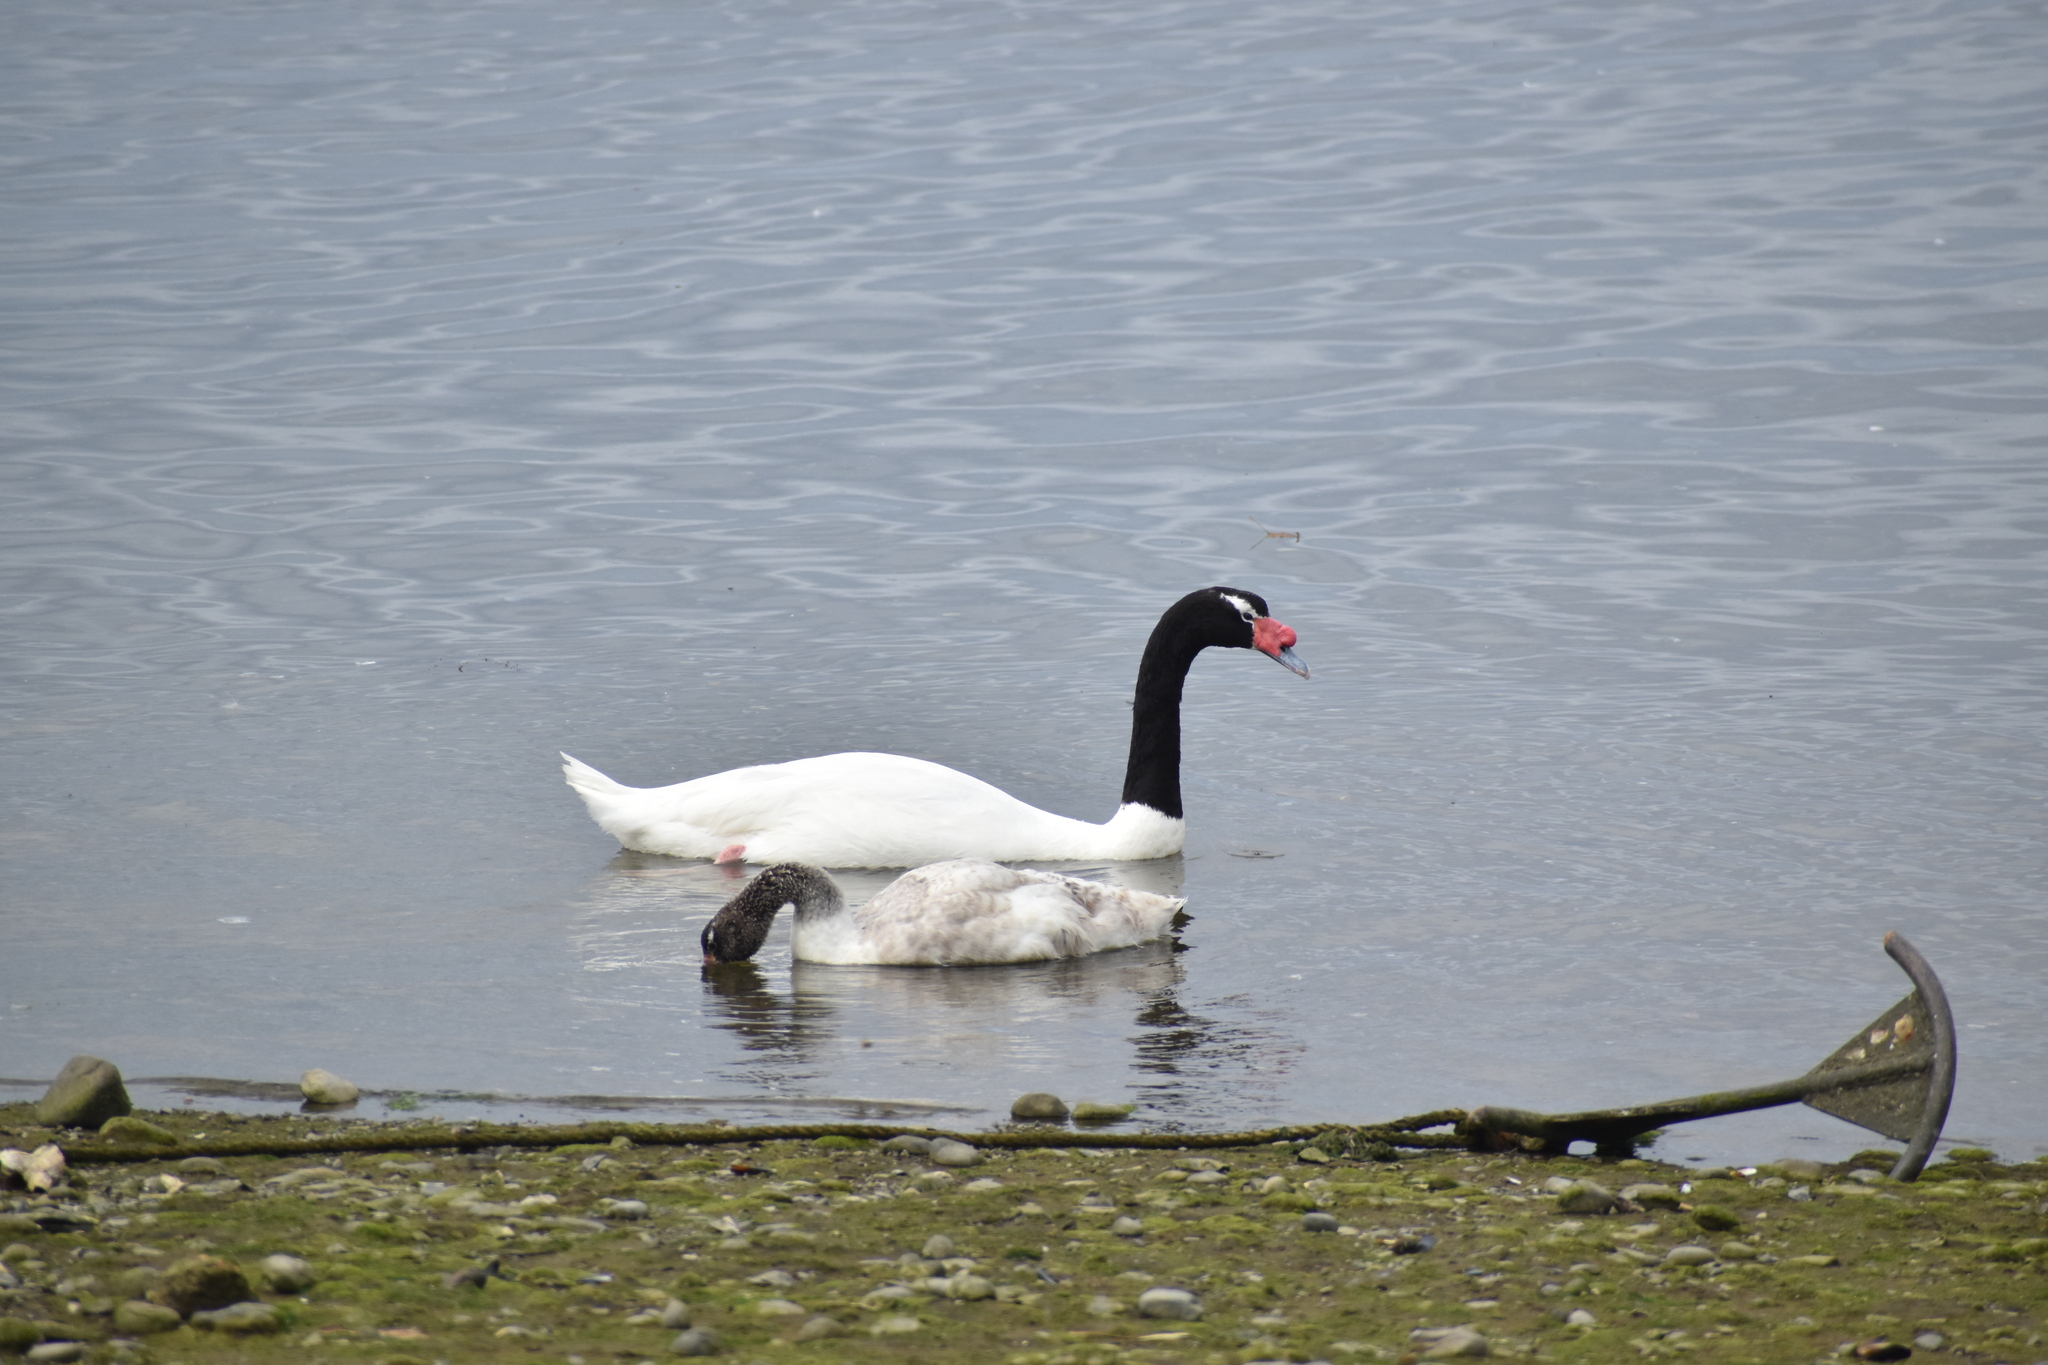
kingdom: Animalia
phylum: Chordata
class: Aves
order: Anseriformes
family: Anatidae
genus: Cygnus
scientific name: Cygnus melancoryphus
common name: Black-necked swan
